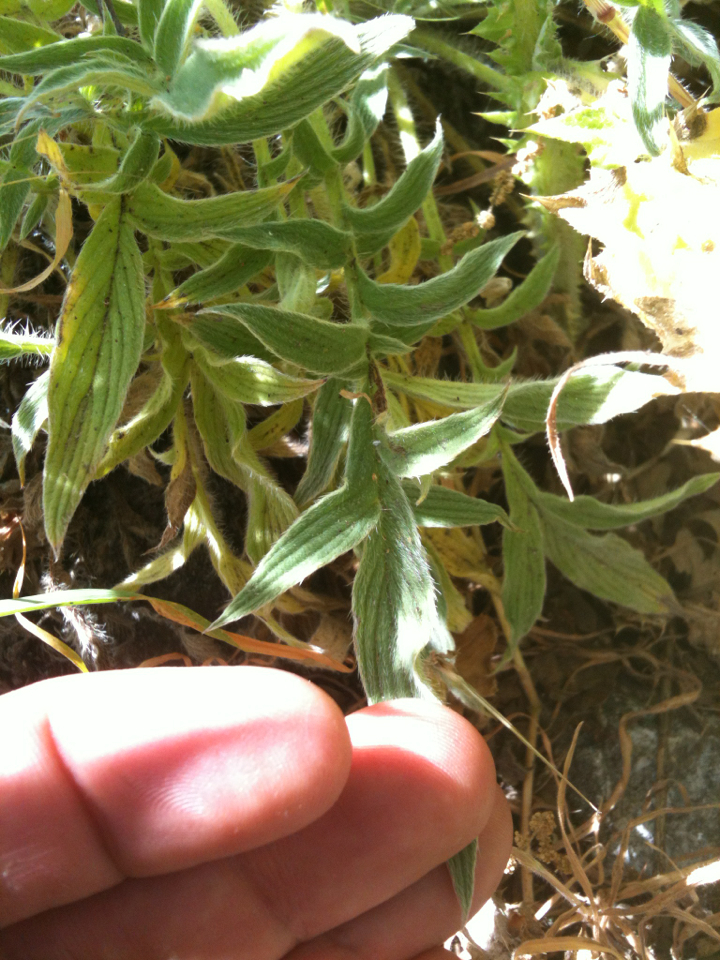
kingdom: Plantae
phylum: Tracheophyta
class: Magnoliopsida
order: Boraginales
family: Hydrophyllaceae
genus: Phacelia
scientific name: Phacelia imbricata
